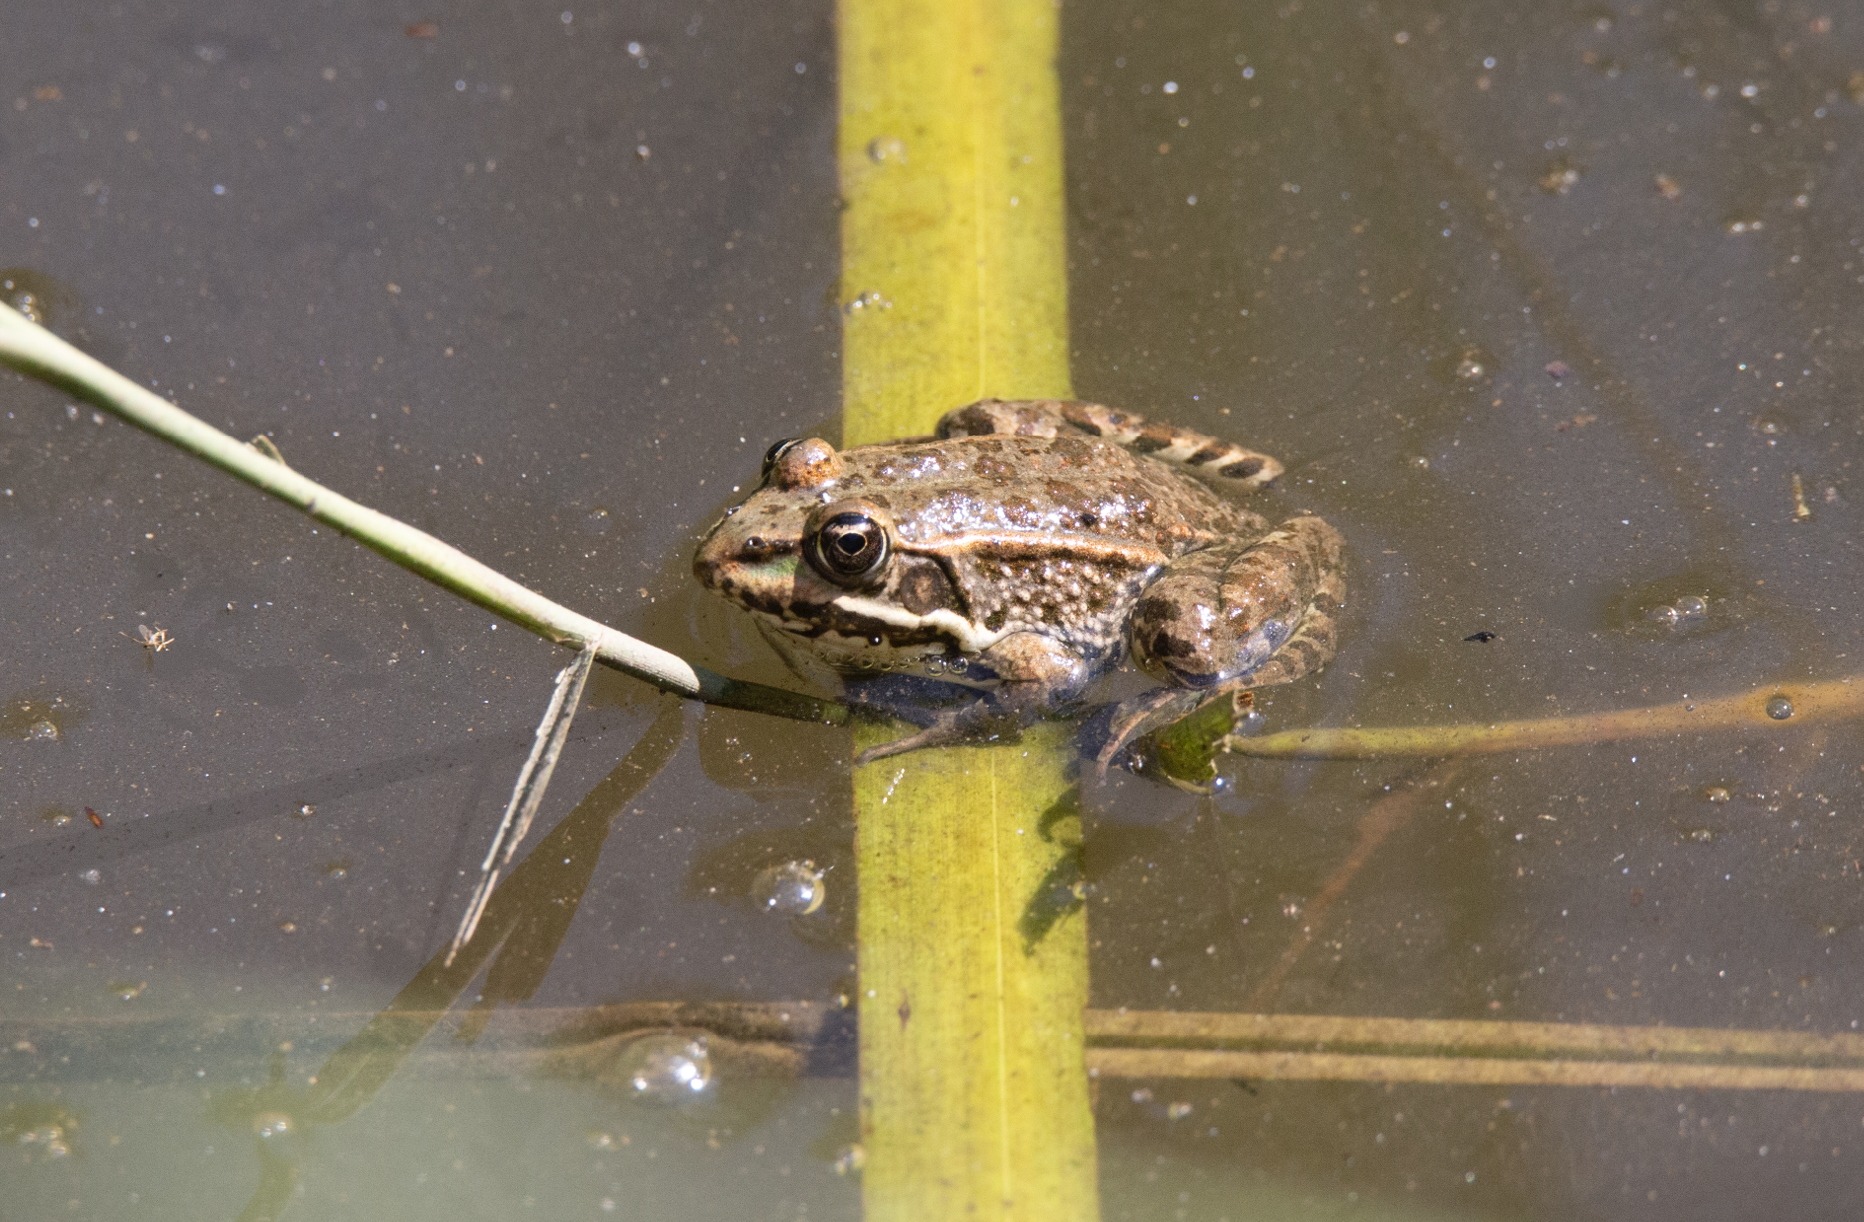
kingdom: Animalia
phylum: Chordata
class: Amphibia
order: Anura
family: Ranidae
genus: Pelophylax
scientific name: Pelophylax
